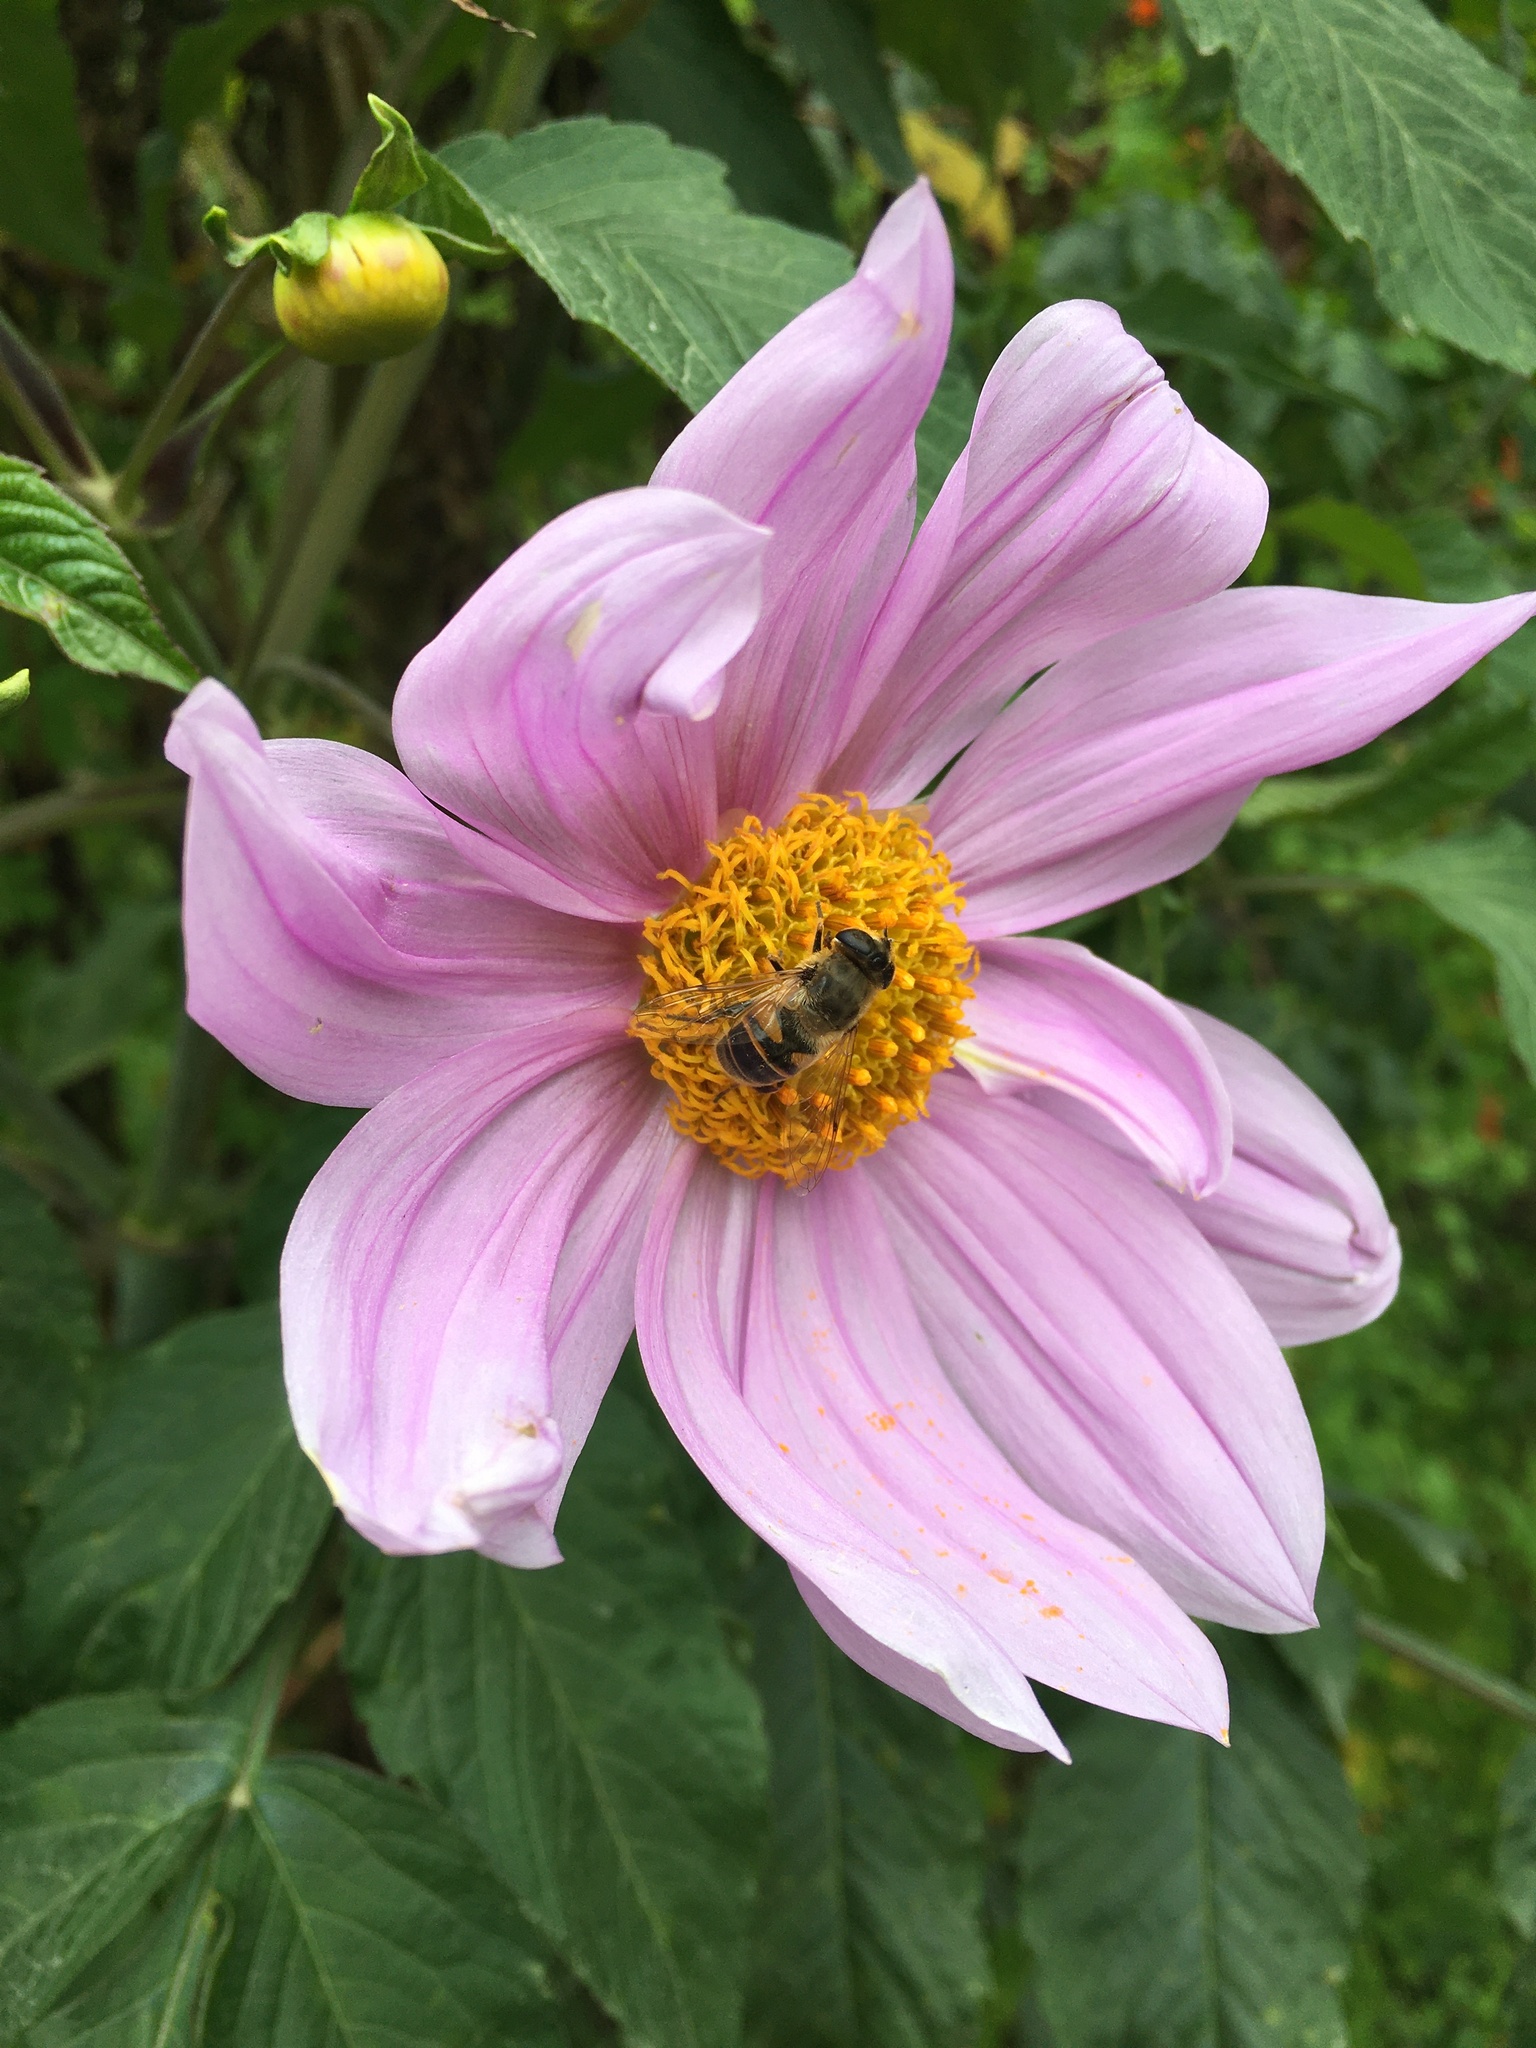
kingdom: Animalia
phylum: Arthropoda
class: Insecta
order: Diptera
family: Syrphidae
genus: Eristalis
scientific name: Eristalis tenax
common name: Drone fly
